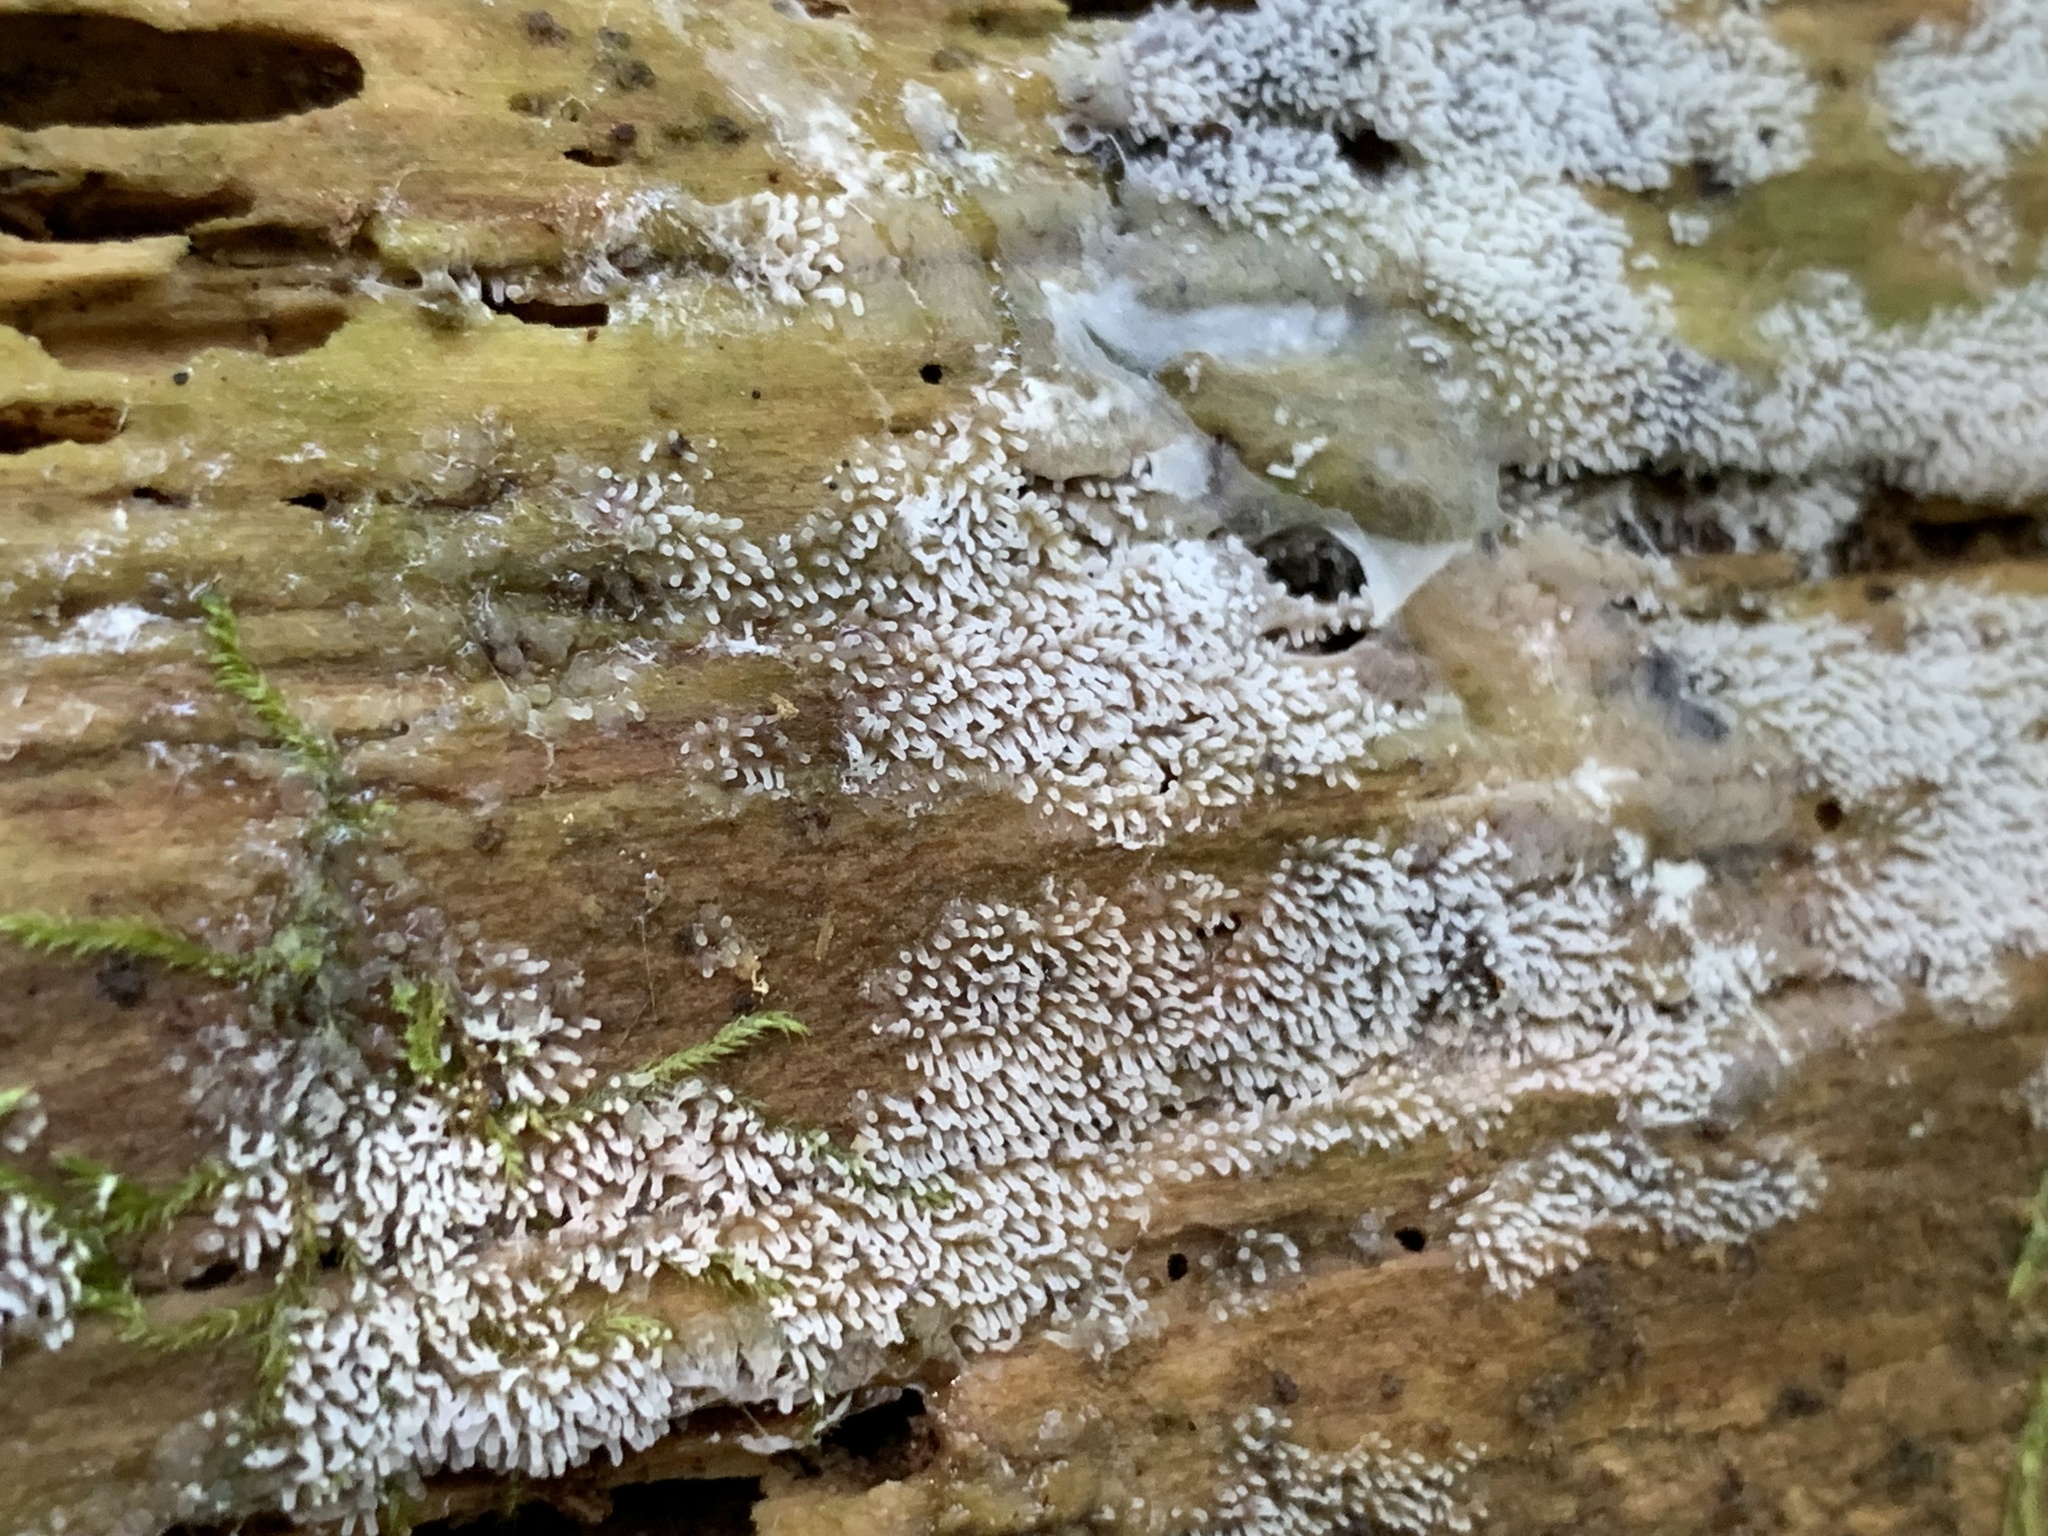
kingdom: Protozoa
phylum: Mycetozoa
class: Protosteliomycetes
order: Ceratiomyxales
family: Ceratiomyxaceae
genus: Ceratiomyxa
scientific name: Ceratiomyxa fruticulosa
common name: Honeycomb coral slime mold
